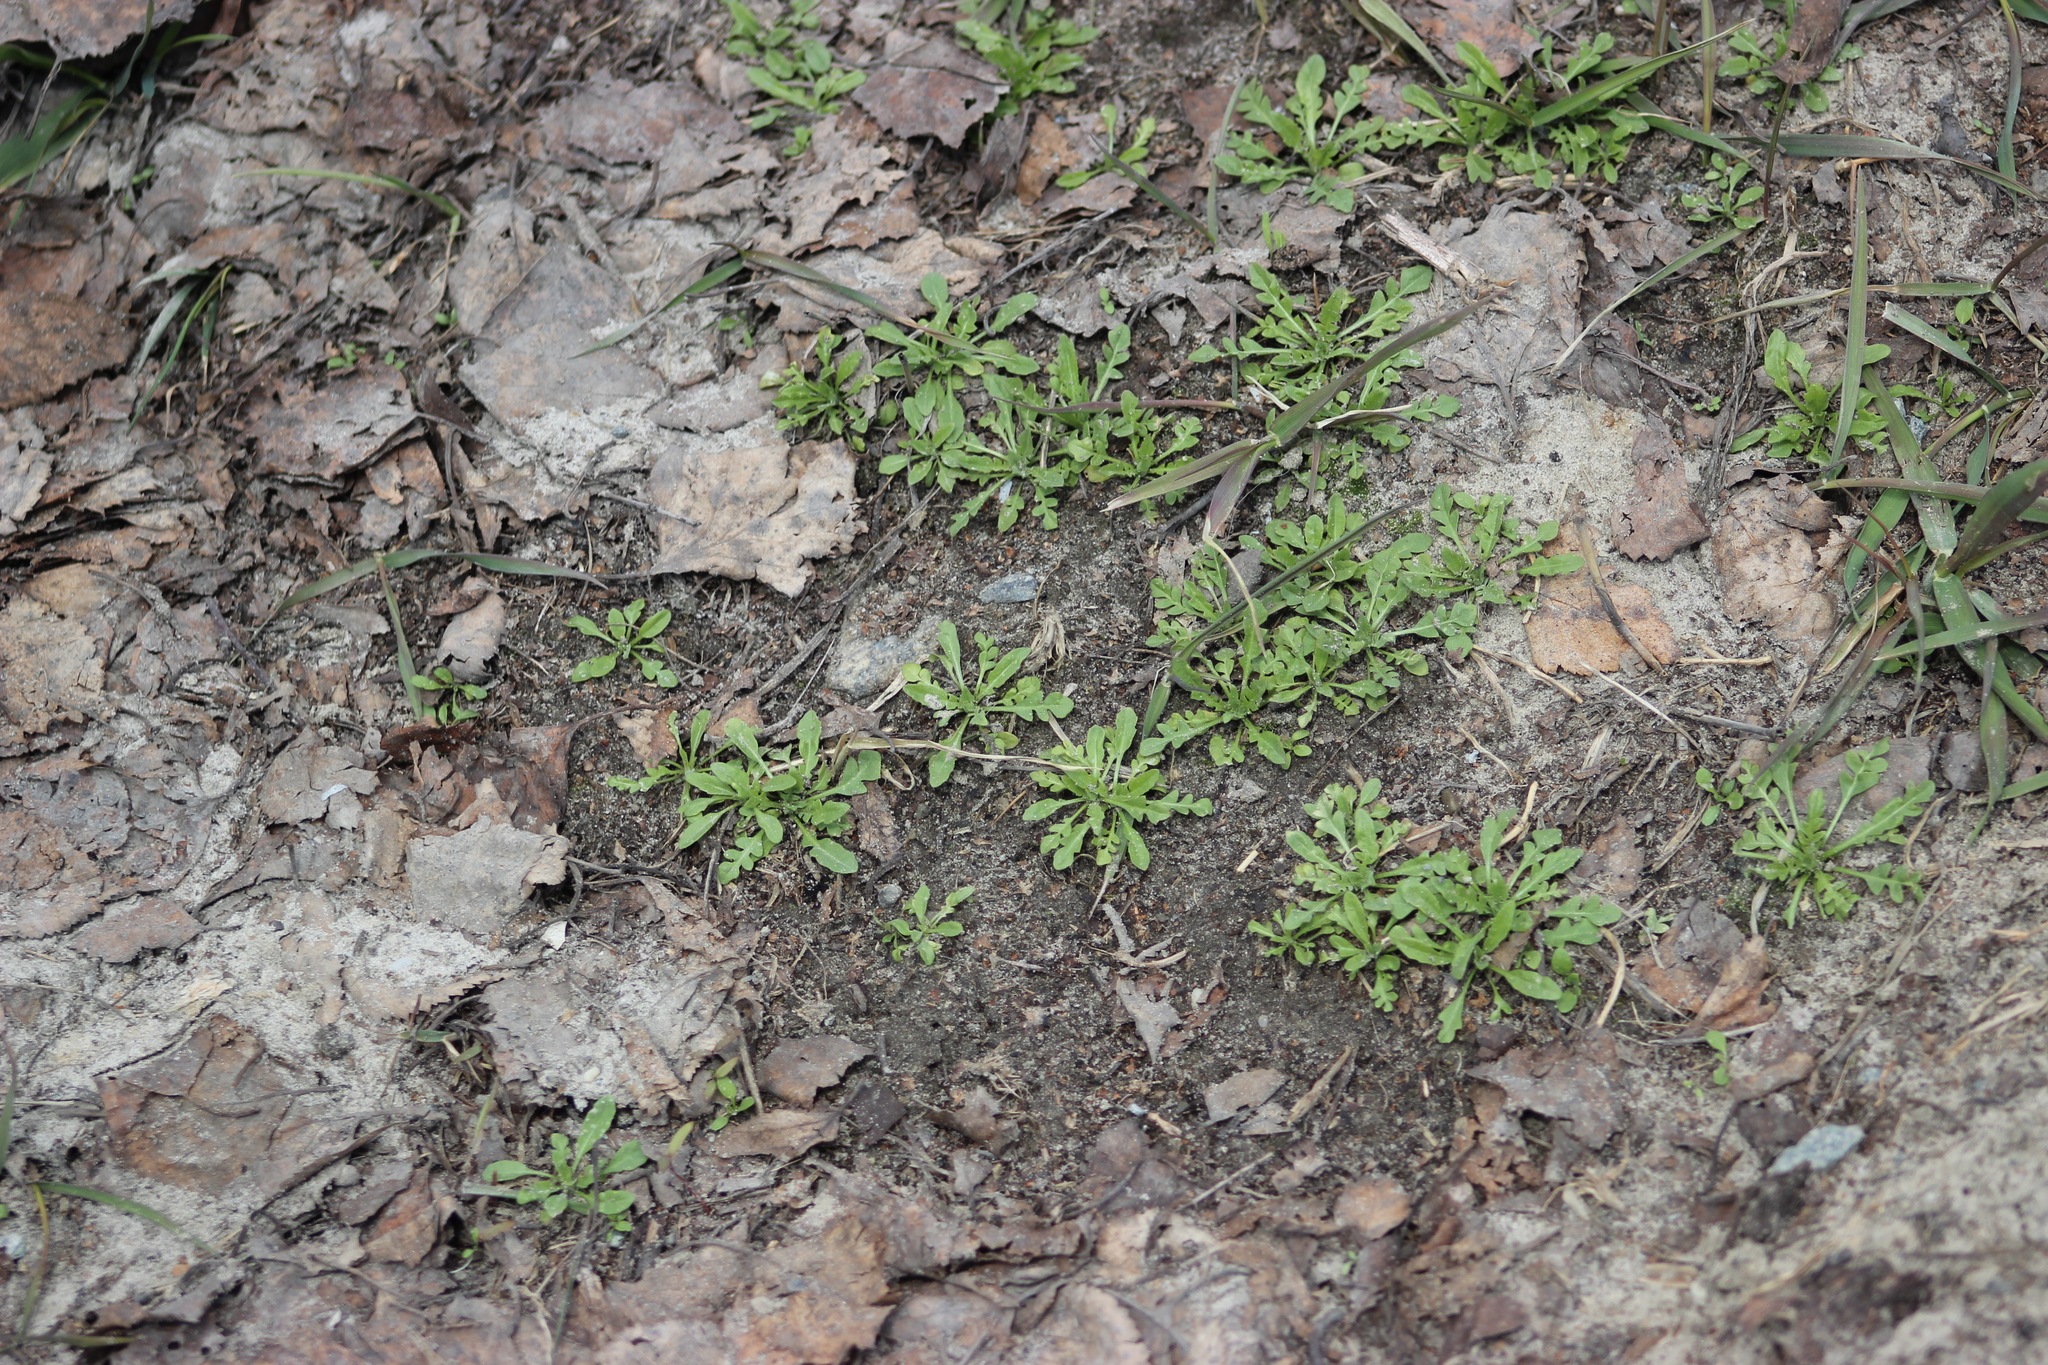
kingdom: Plantae
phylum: Tracheophyta
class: Magnoliopsida
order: Brassicales
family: Brassicaceae
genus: Capsella
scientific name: Capsella bursa-pastoris
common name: Shepherd's purse
